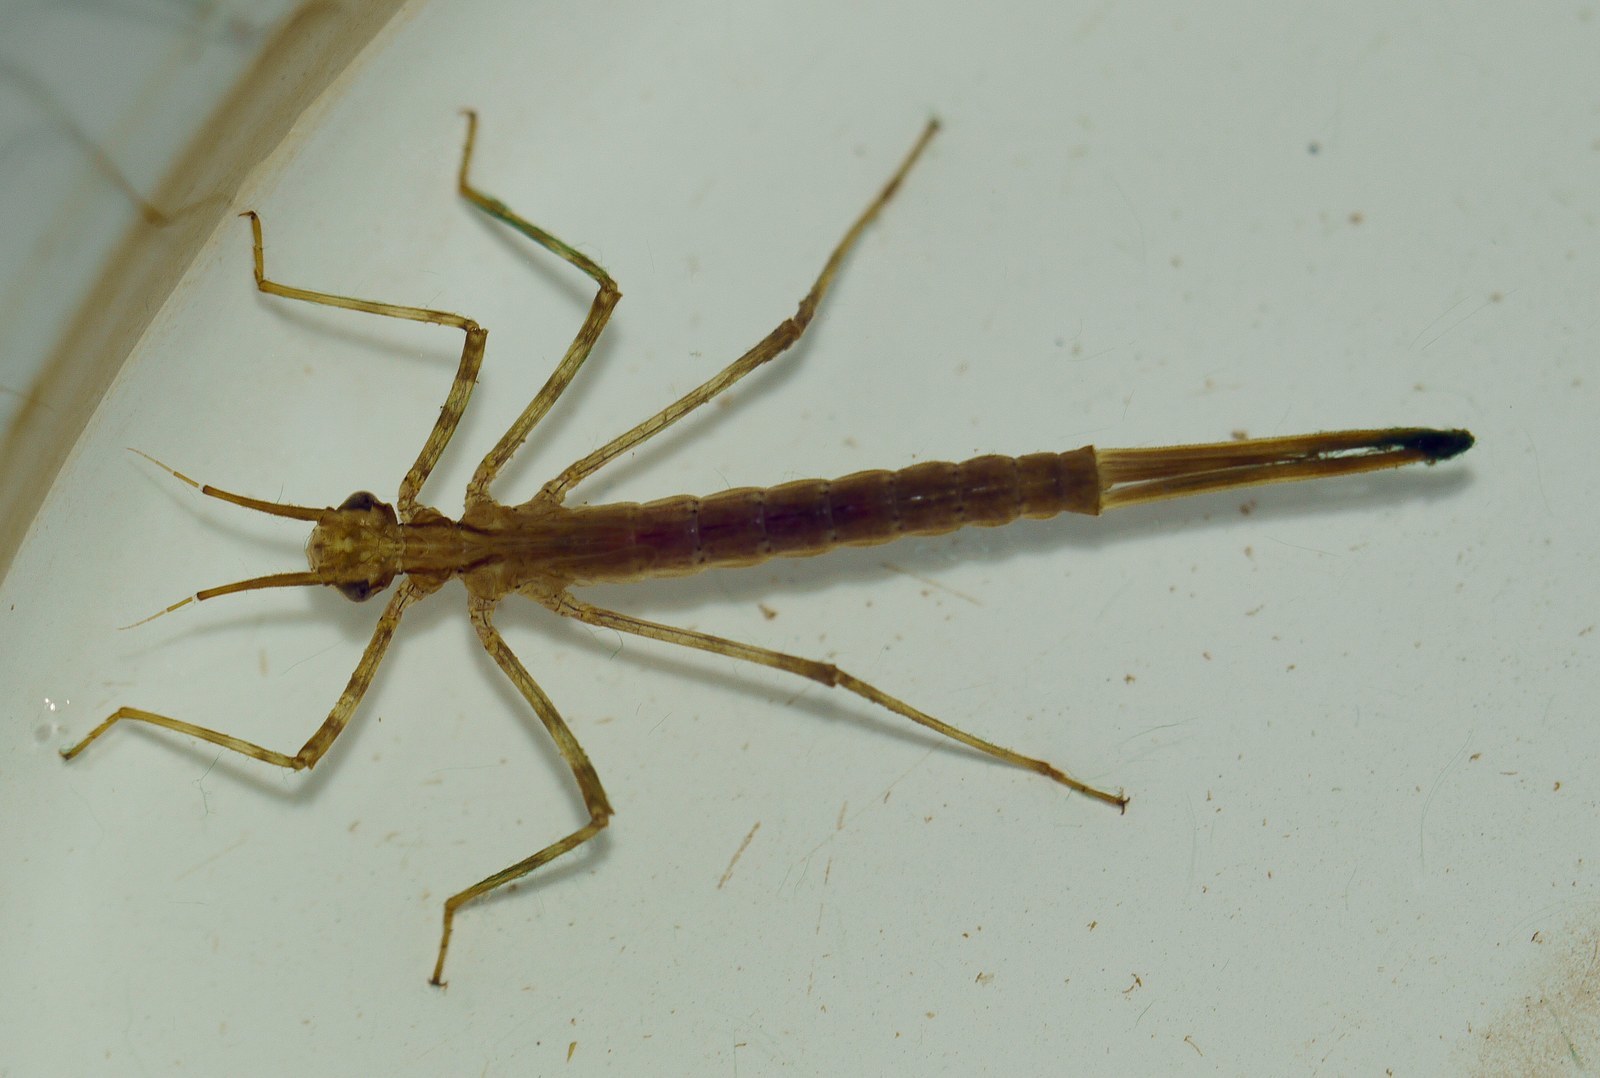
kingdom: Animalia
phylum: Arthropoda
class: Insecta
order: Odonata
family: Calopterygidae
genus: Calopteryx
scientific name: Calopteryx splendens
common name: Banded demoiselle
